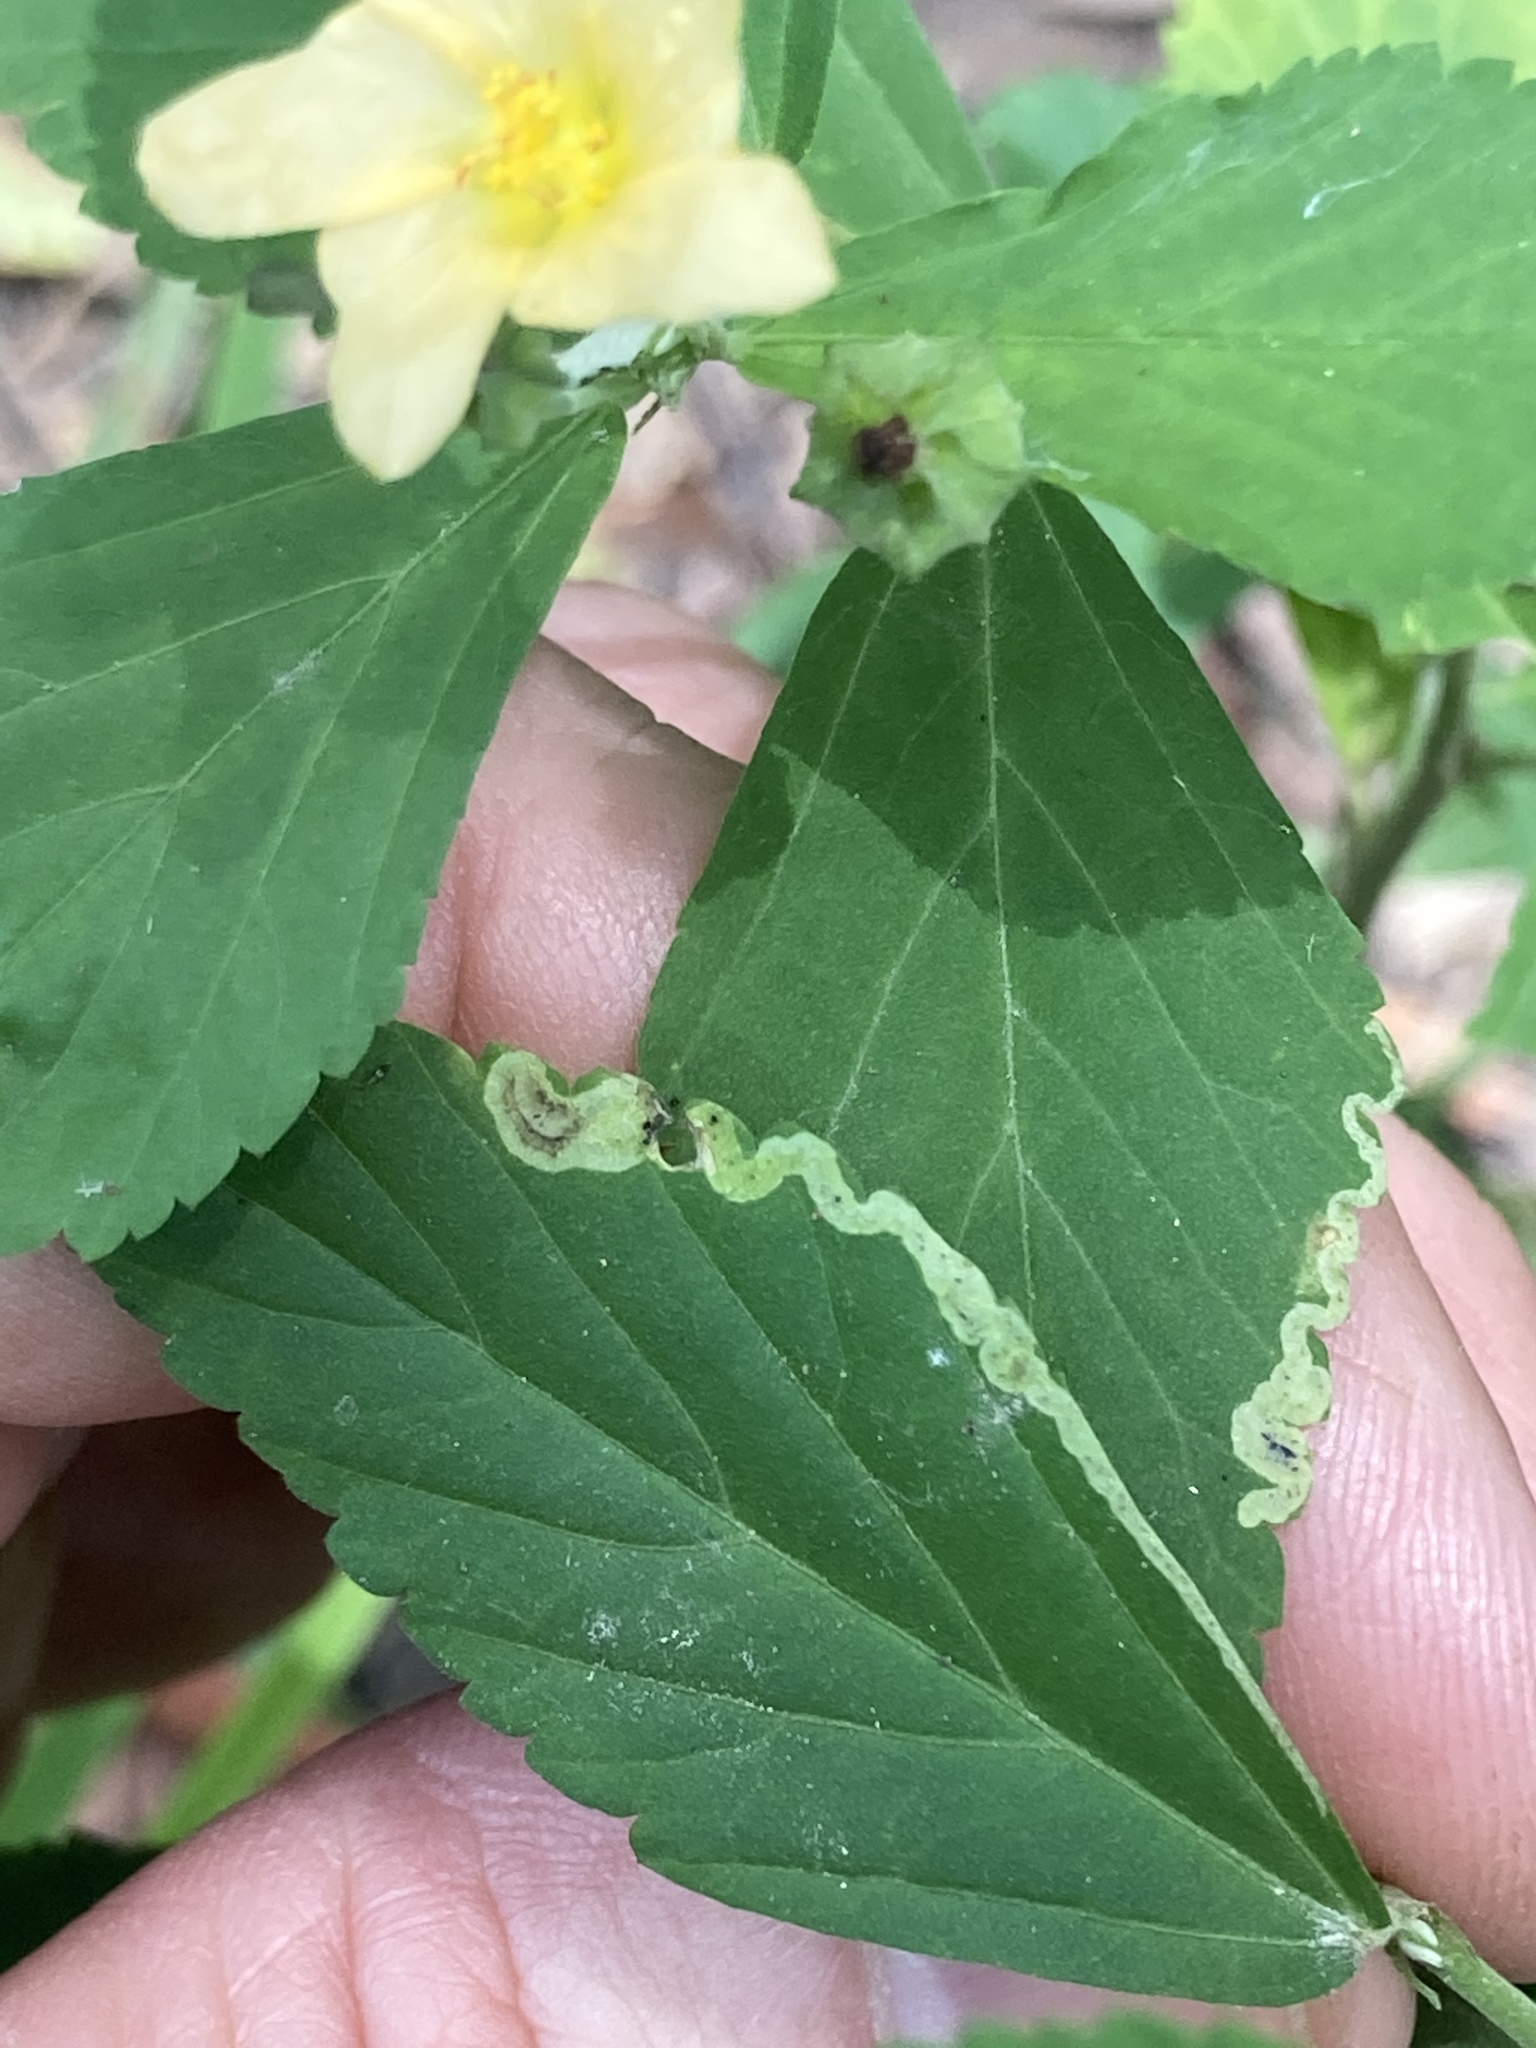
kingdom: Animalia
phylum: Arthropoda
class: Insecta
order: Diptera
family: Agromyzidae
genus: Calycomyza
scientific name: Calycomyza malvae
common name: Mallow leaf miner
